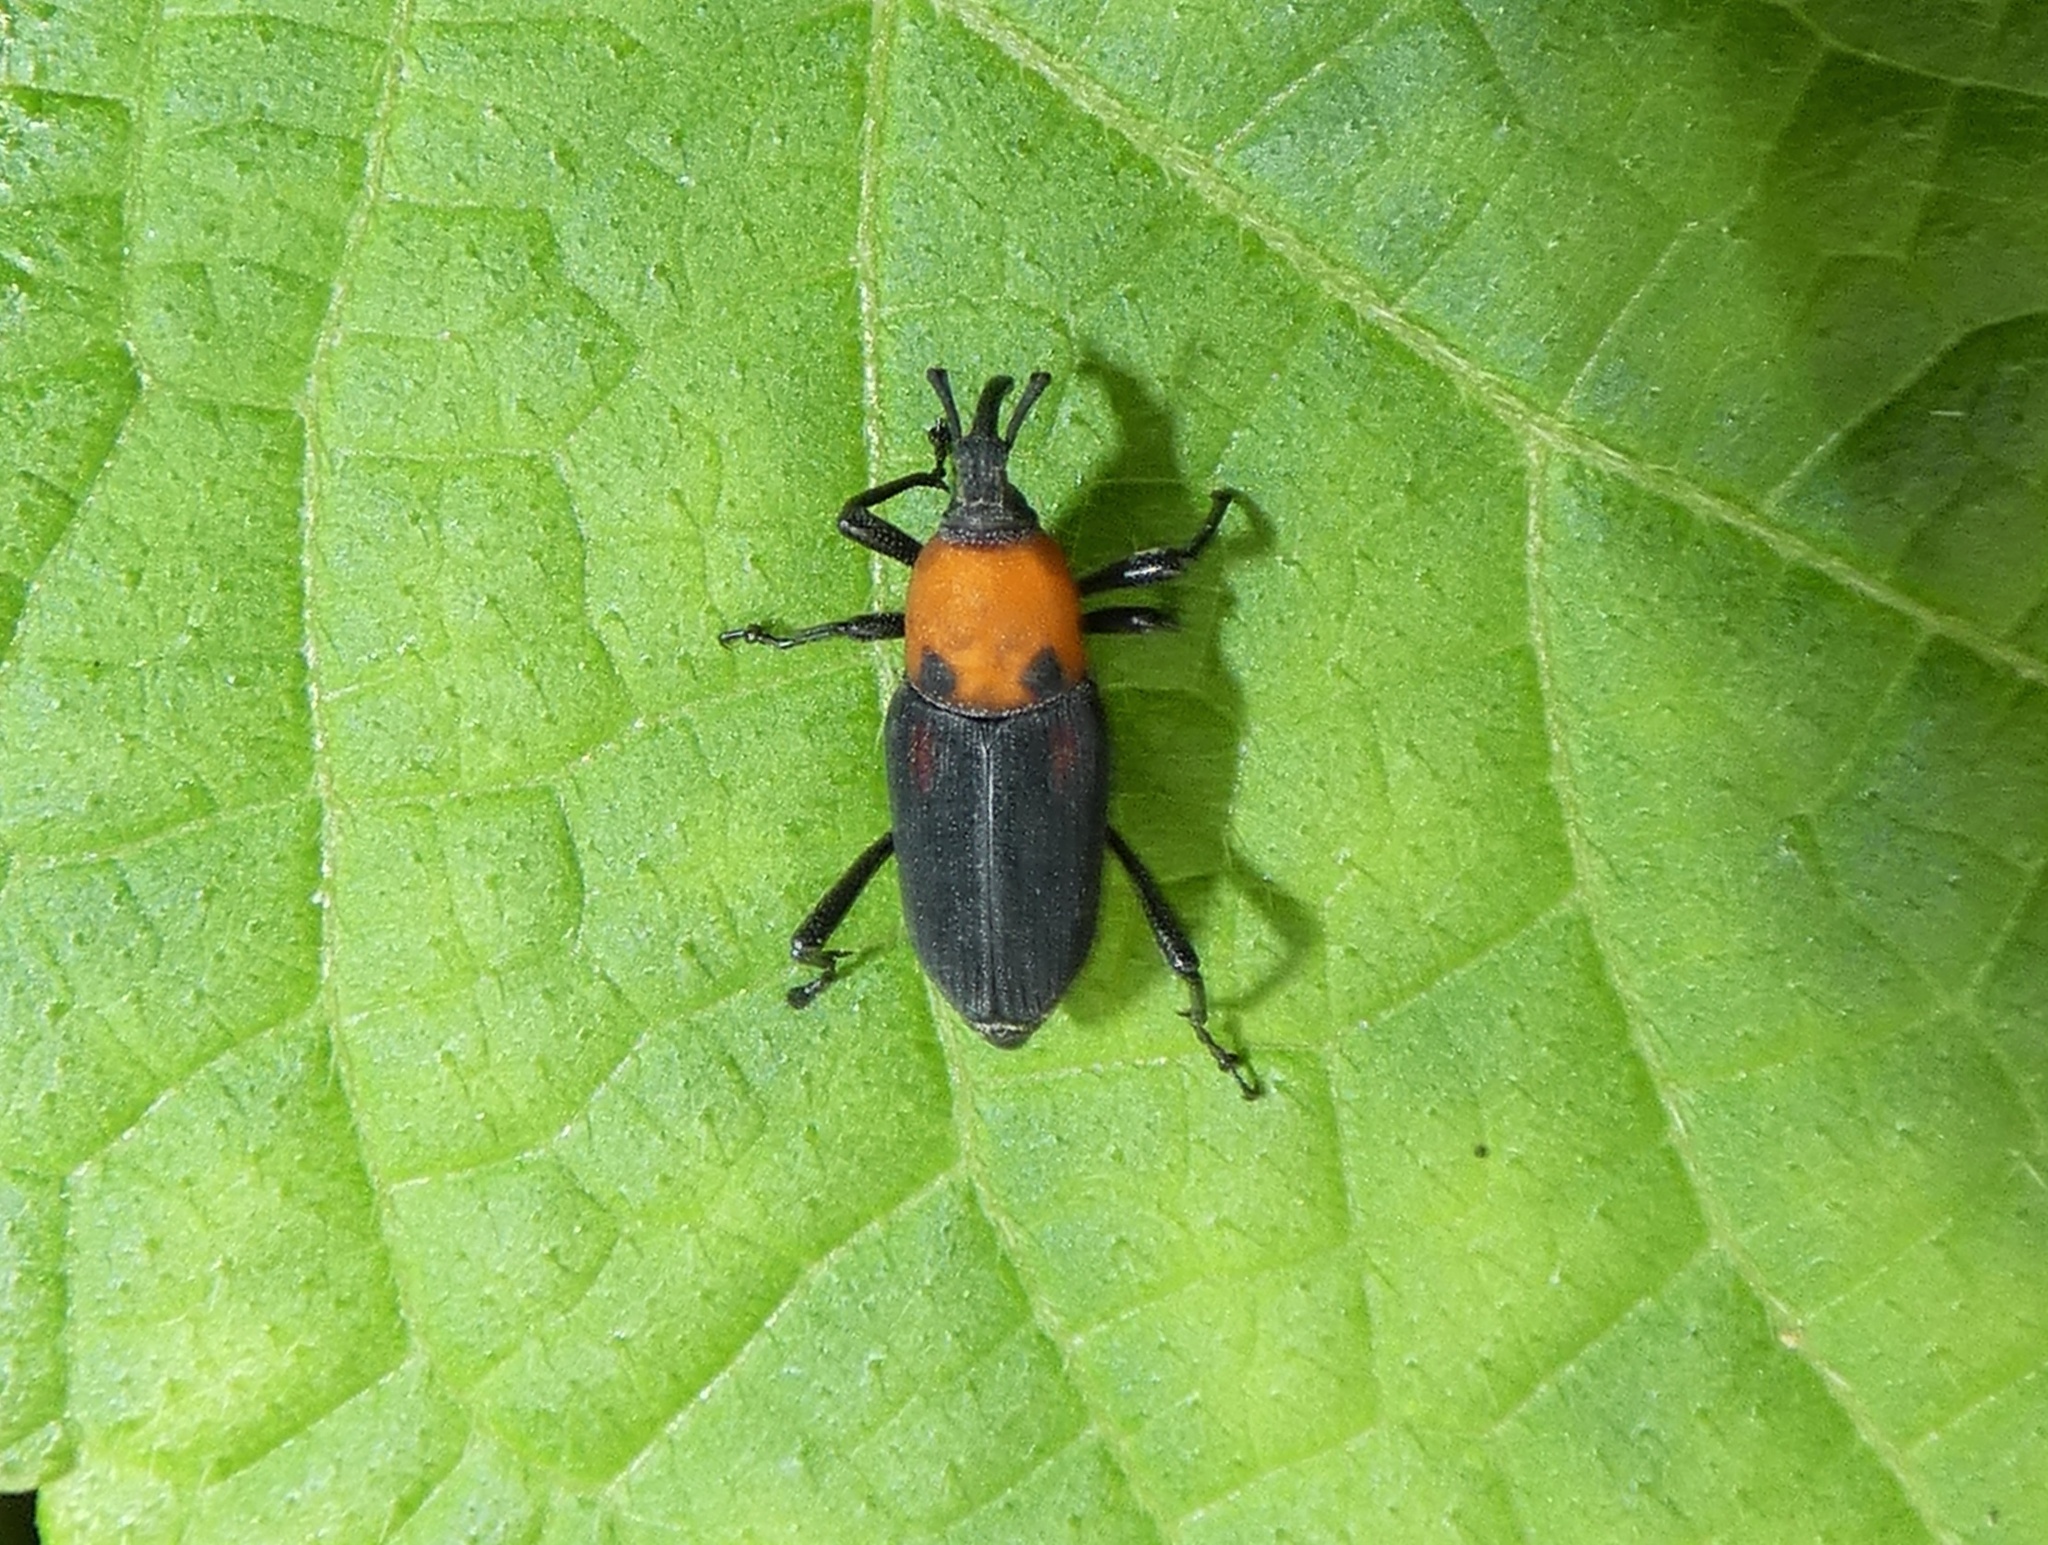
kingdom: Animalia
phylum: Arthropoda
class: Insecta
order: Coleoptera
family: Dryophthoridae
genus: Rhodobaenus
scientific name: Rhodobaenus lebasii
